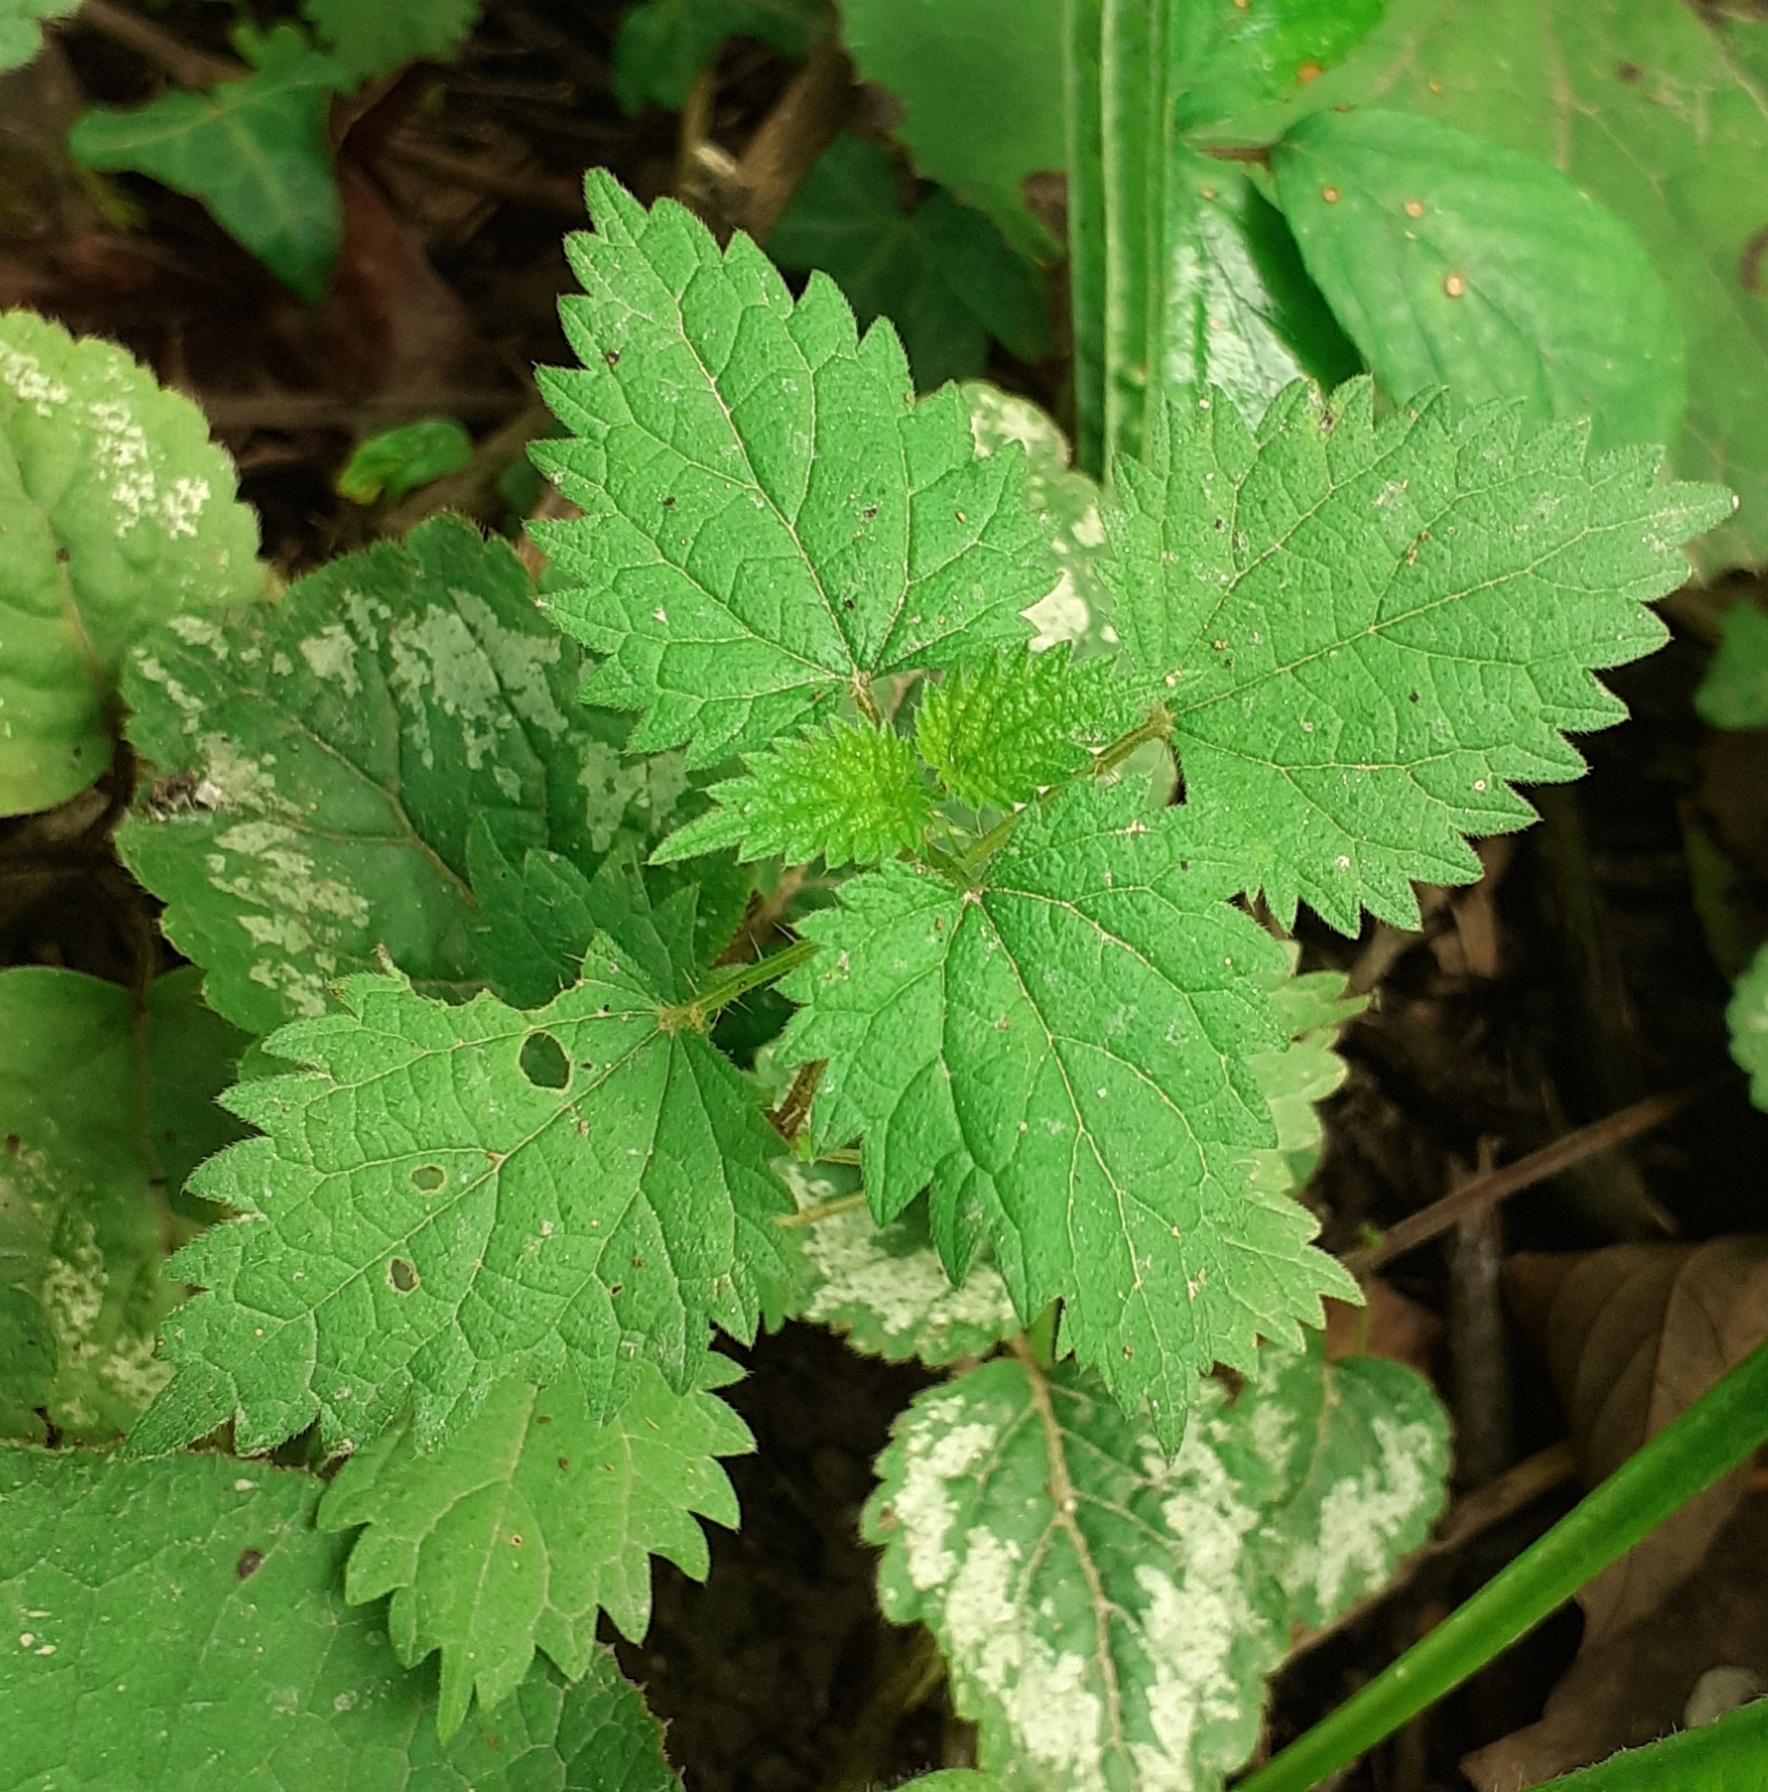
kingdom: Plantae
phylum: Tracheophyta
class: Magnoliopsida
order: Rosales
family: Urticaceae
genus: Urtica
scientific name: Urtica dioica
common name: Common nettle
